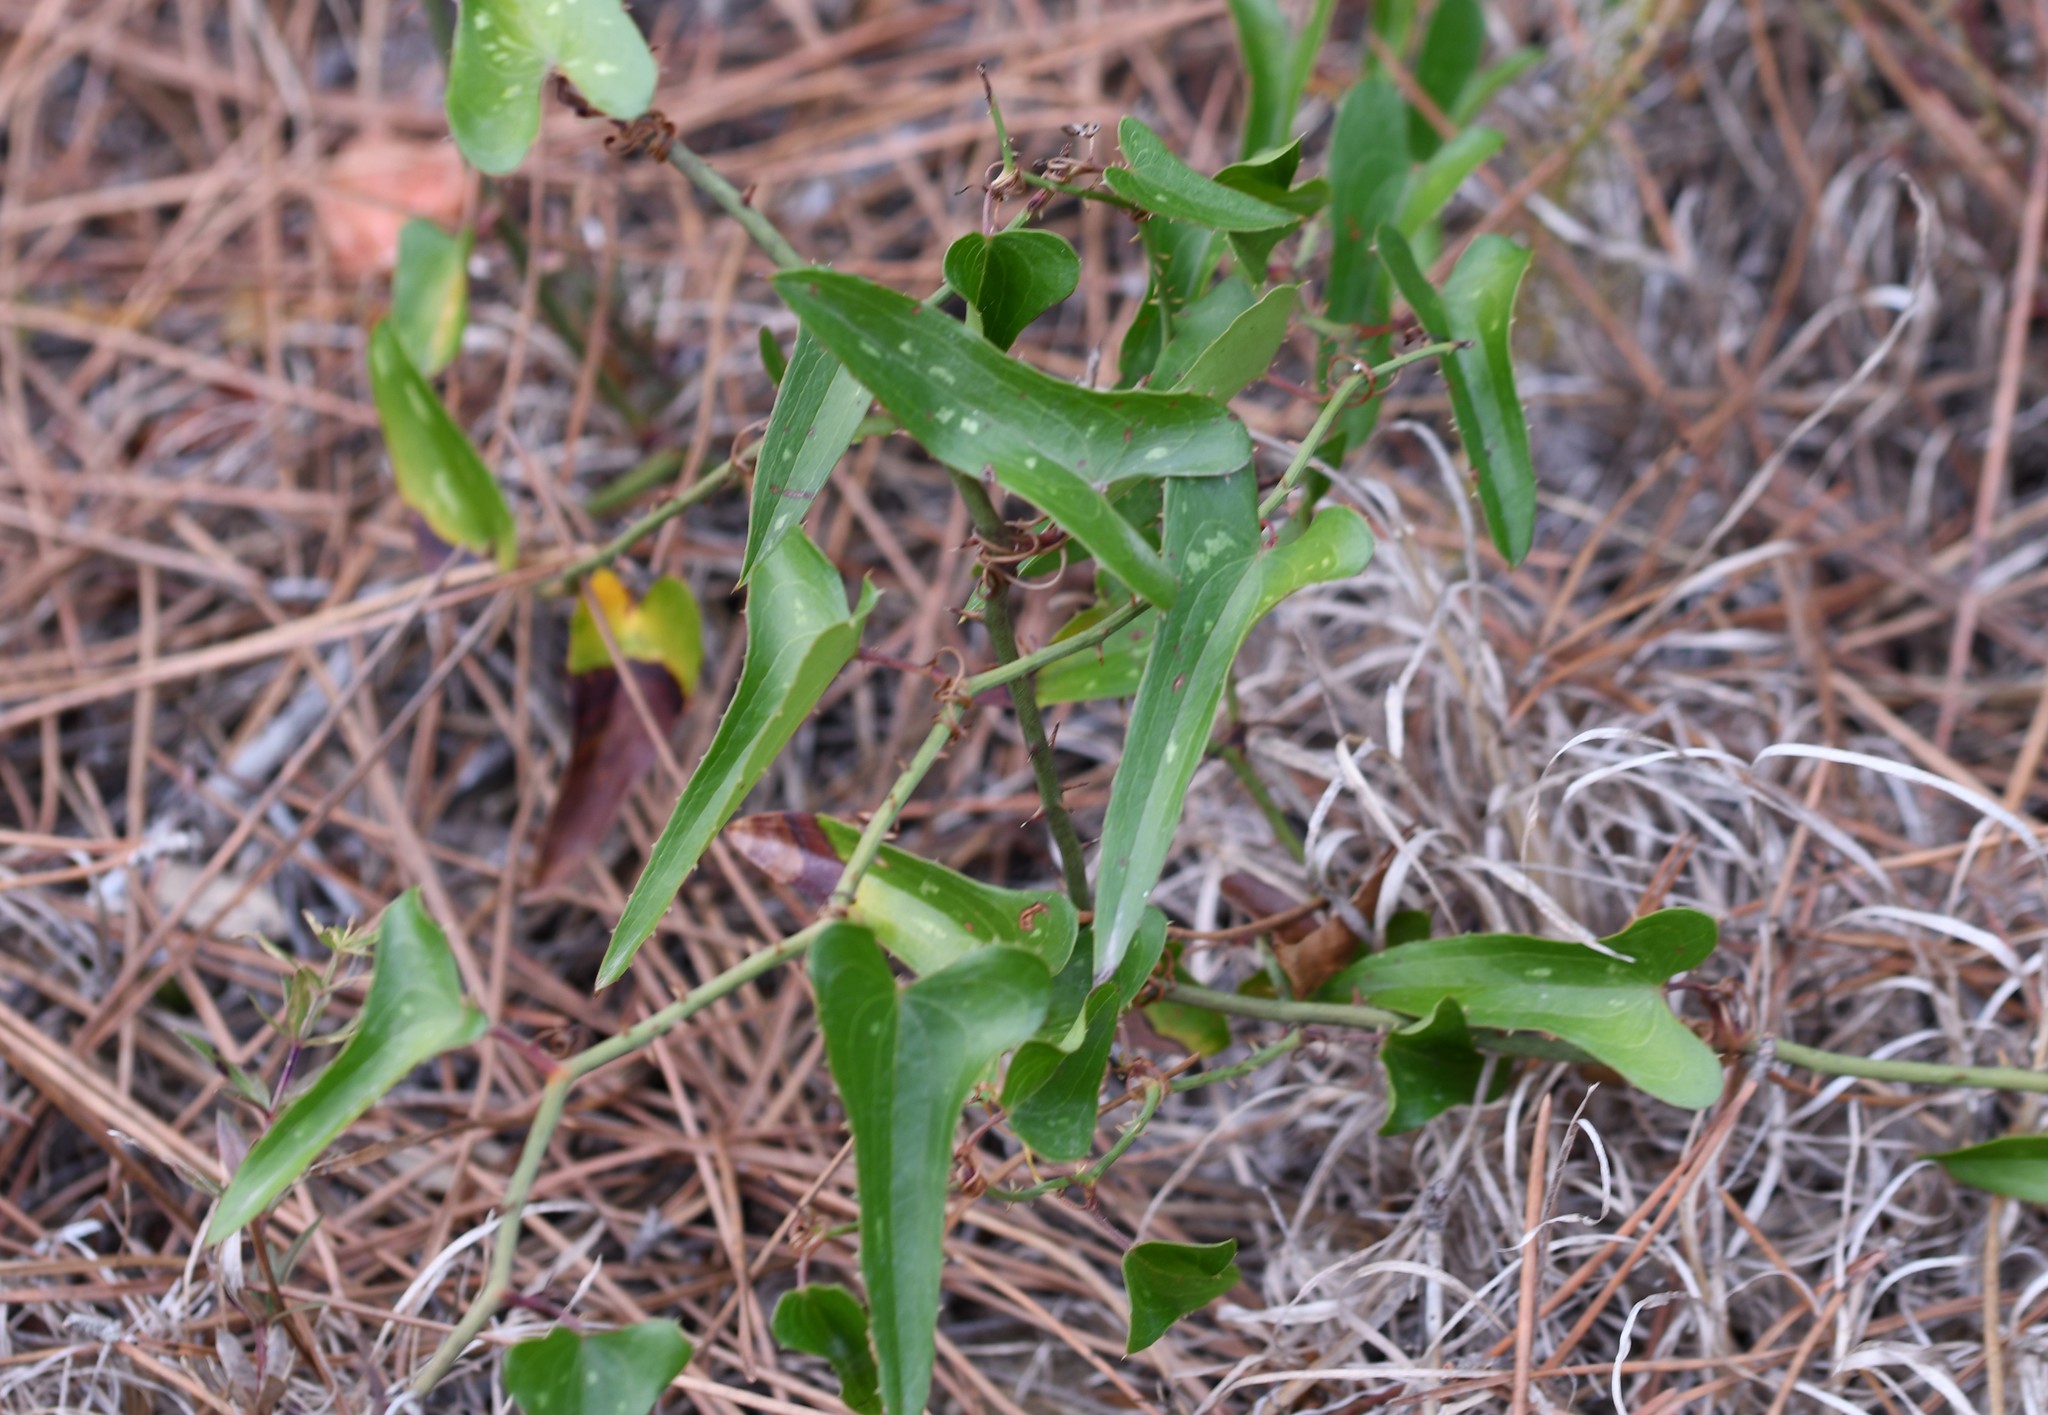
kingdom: Plantae
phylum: Tracheophyta
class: Liliopsida
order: Liliales
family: Smilacaceae
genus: Smilax
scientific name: Smilax aspera
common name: Common smilax
